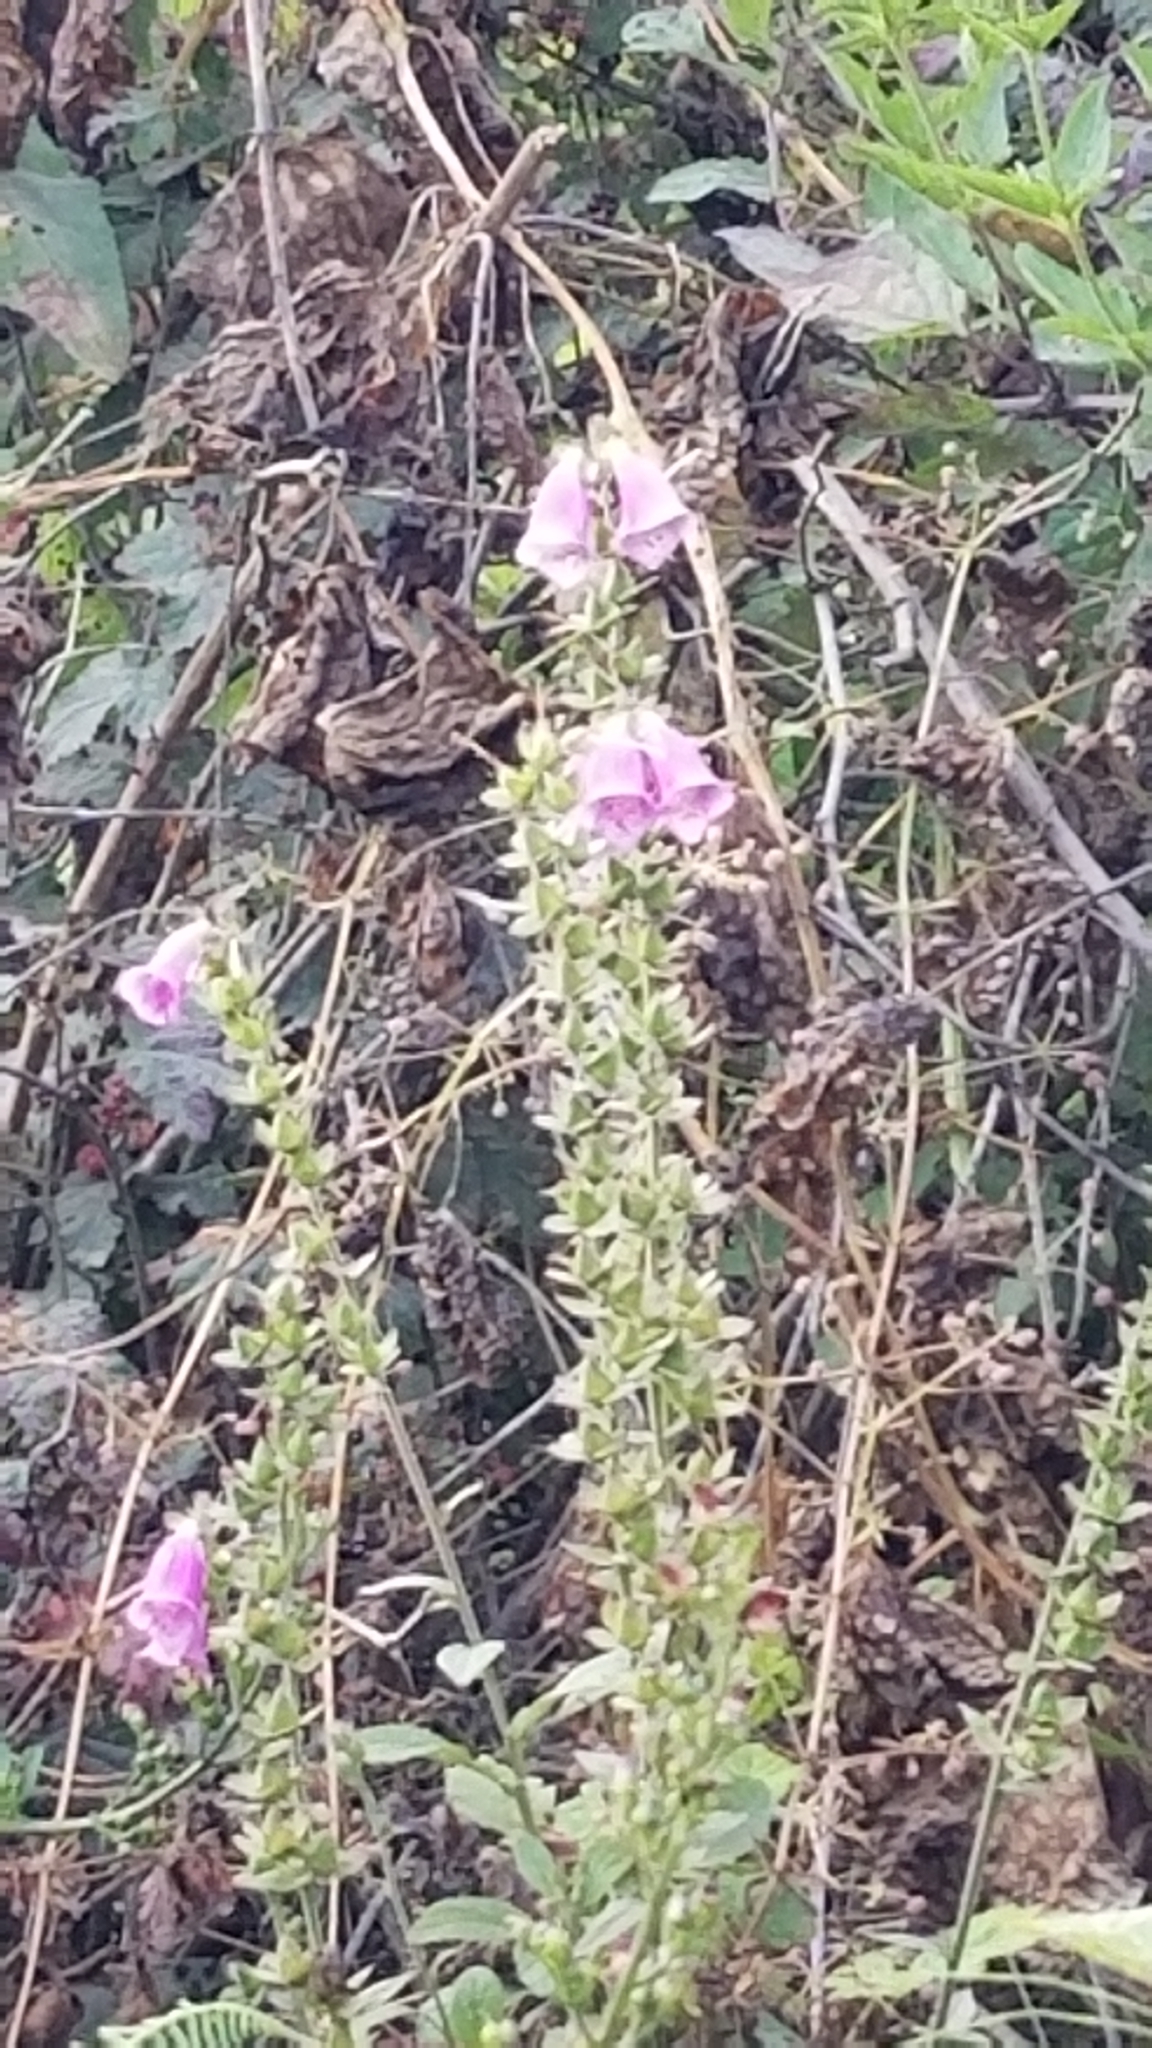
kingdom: Plantae
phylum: Tracheophyta
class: Magnoliopsida
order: Lamiales
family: Plantaginaceae
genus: Digitalis
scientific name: Digitalis purpurea
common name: Foxglove
